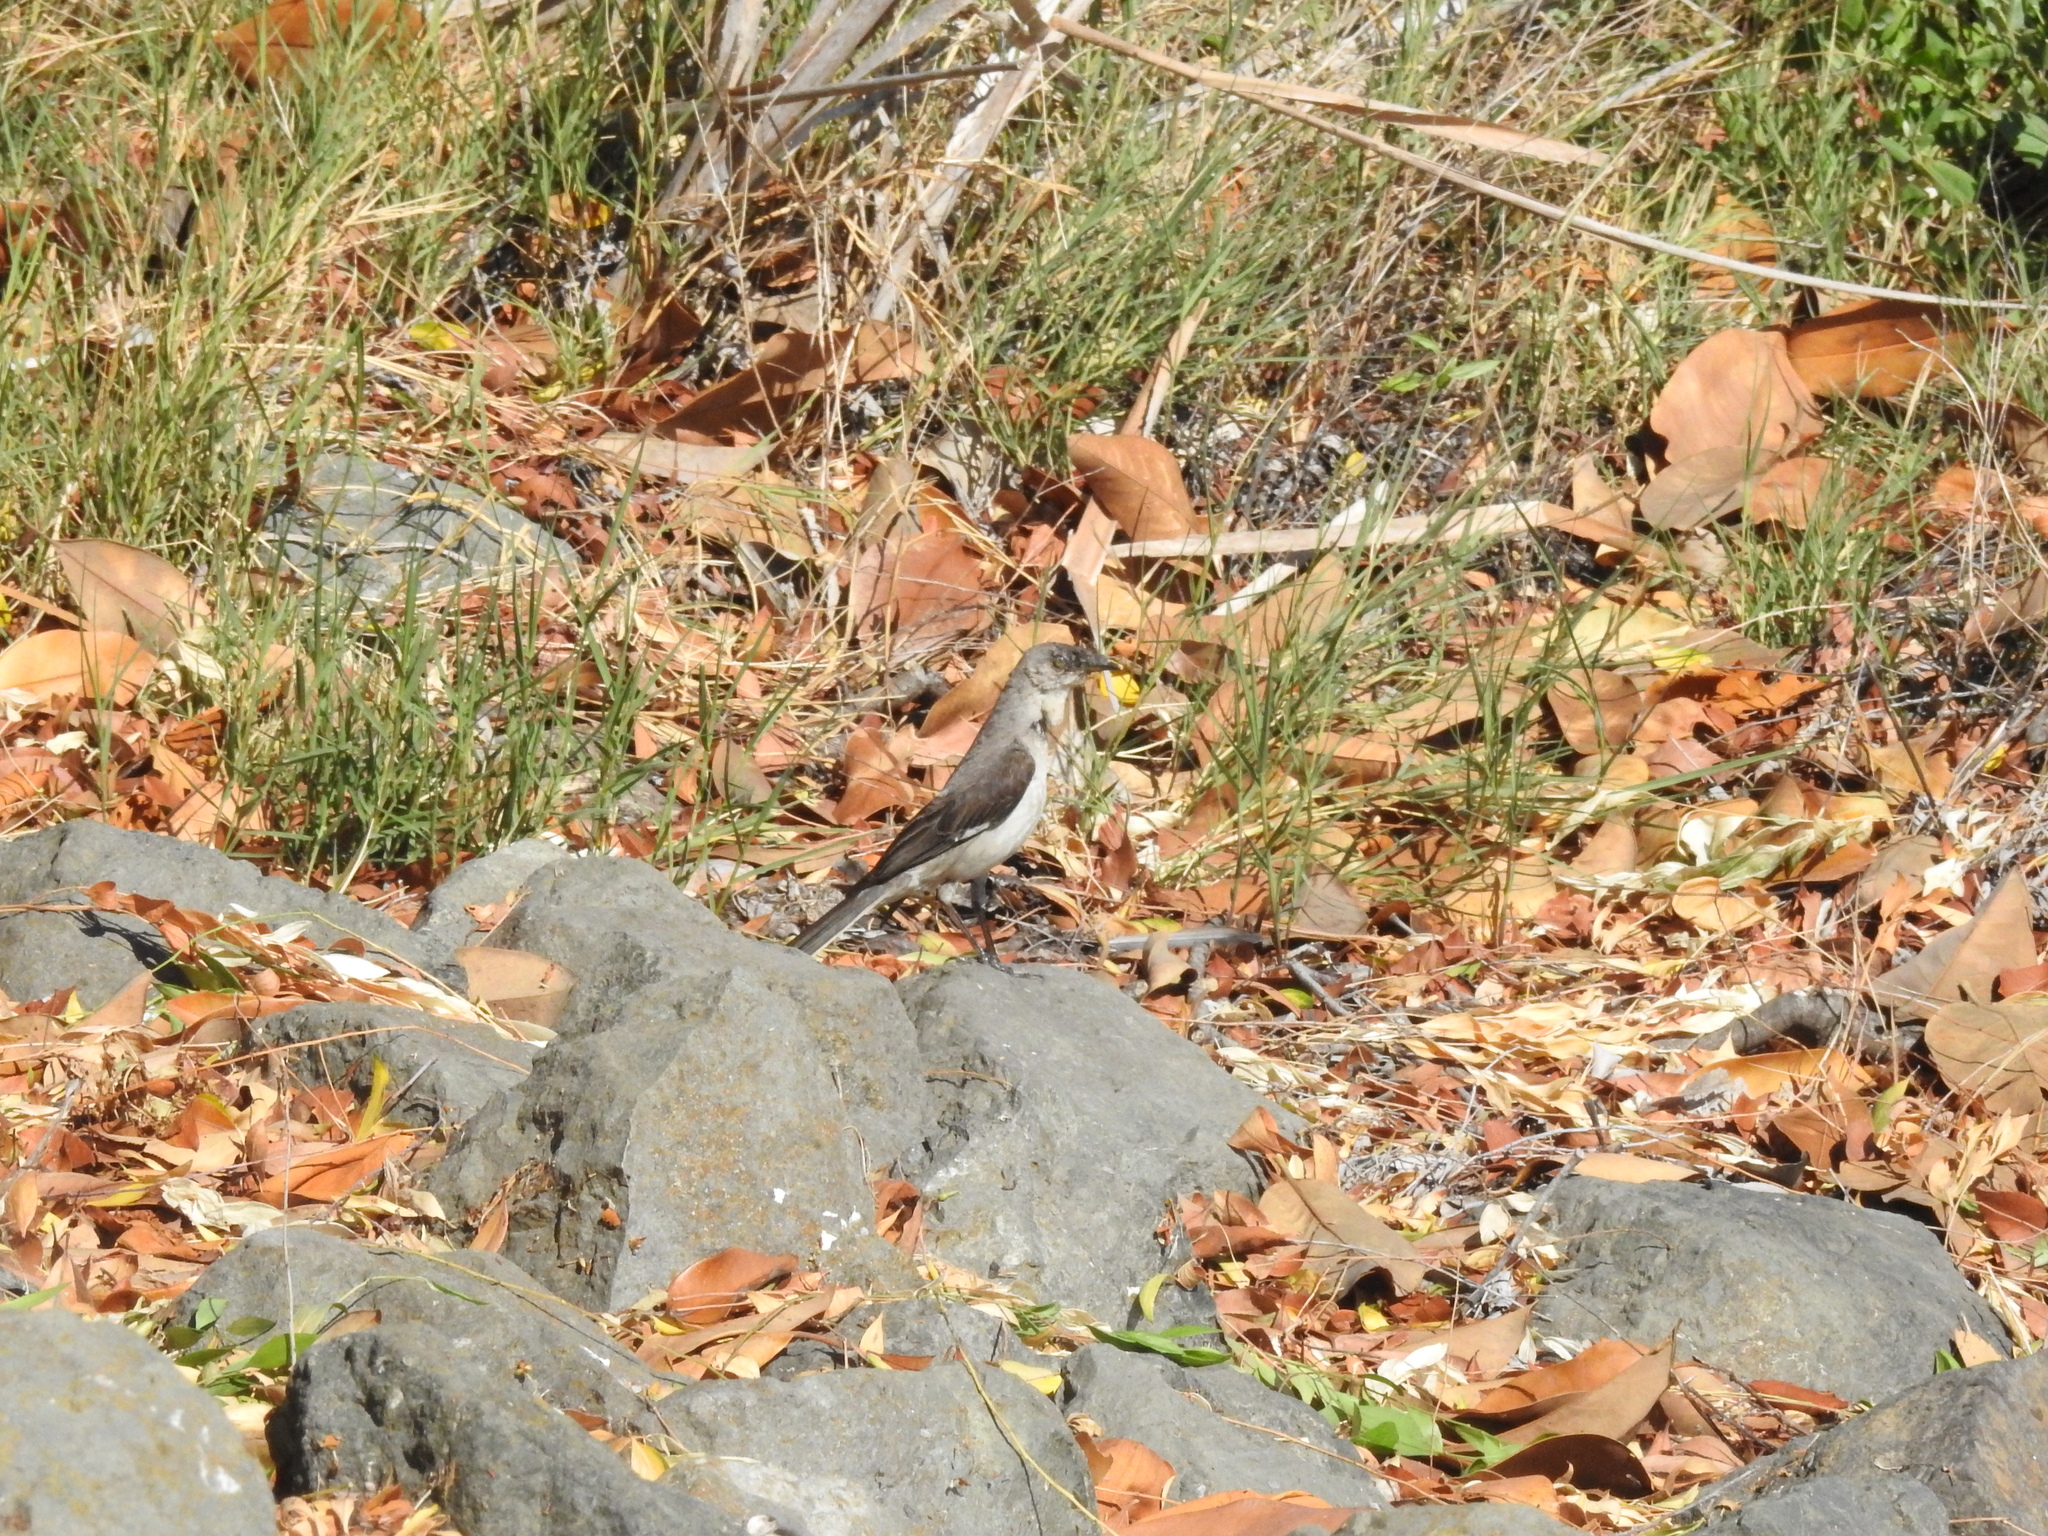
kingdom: Animalia
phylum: Chordata
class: Aves
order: Passeriformes
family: Mimidae
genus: Mimus
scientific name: Mimus polyglottos
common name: Northern mockingbird
